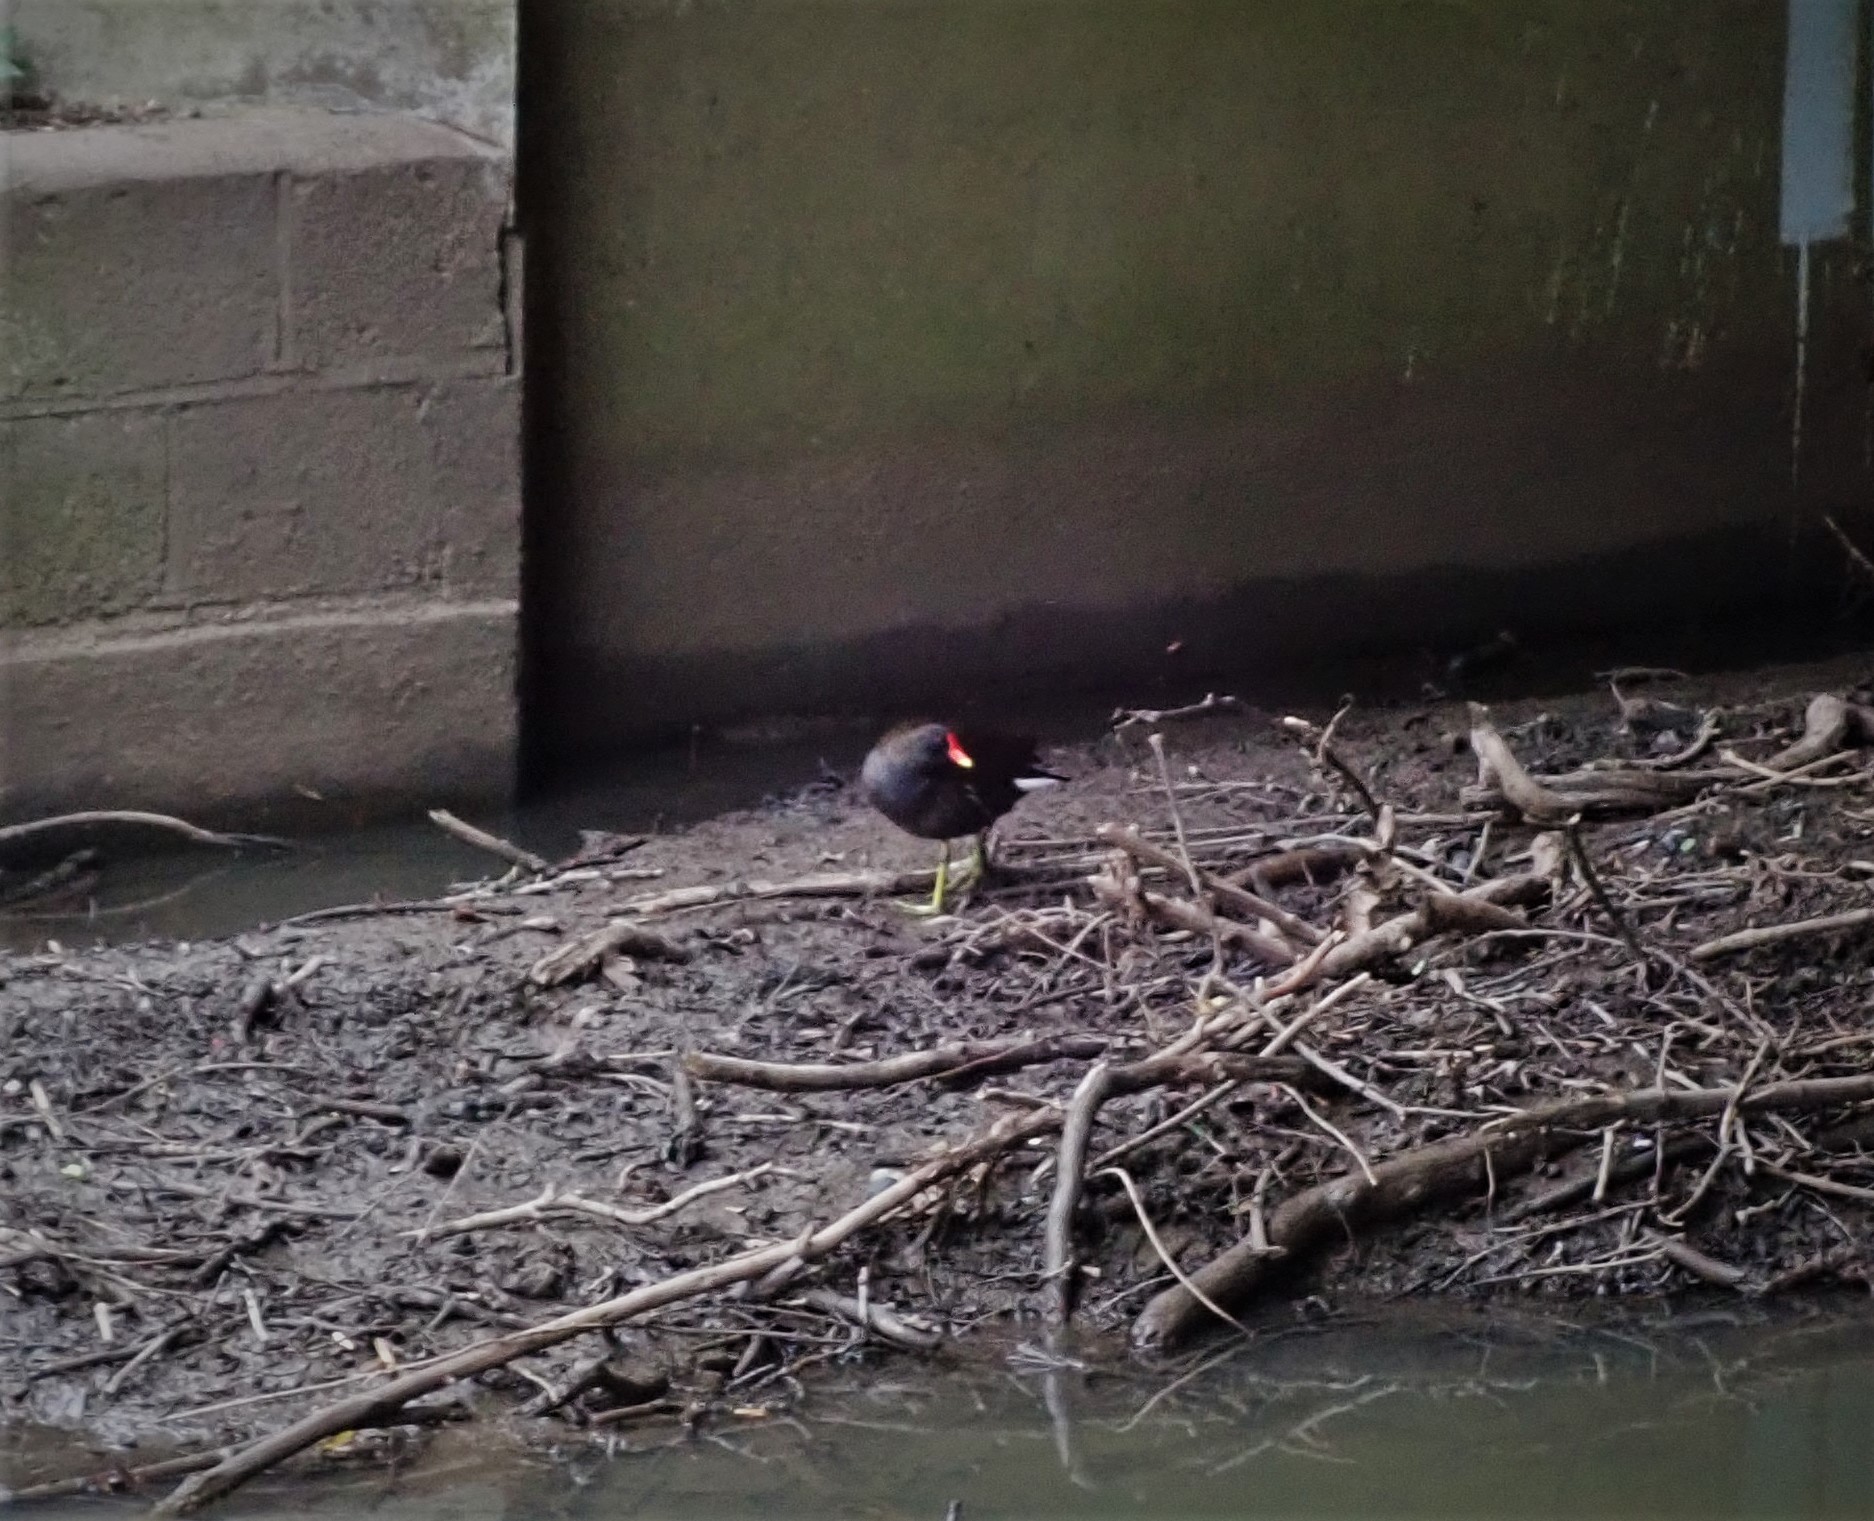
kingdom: Animalia
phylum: Chordata
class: Aves
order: Gruiformes
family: Rallidae
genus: Gallinula
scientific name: Gallinula chloropus
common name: Common moorhen
